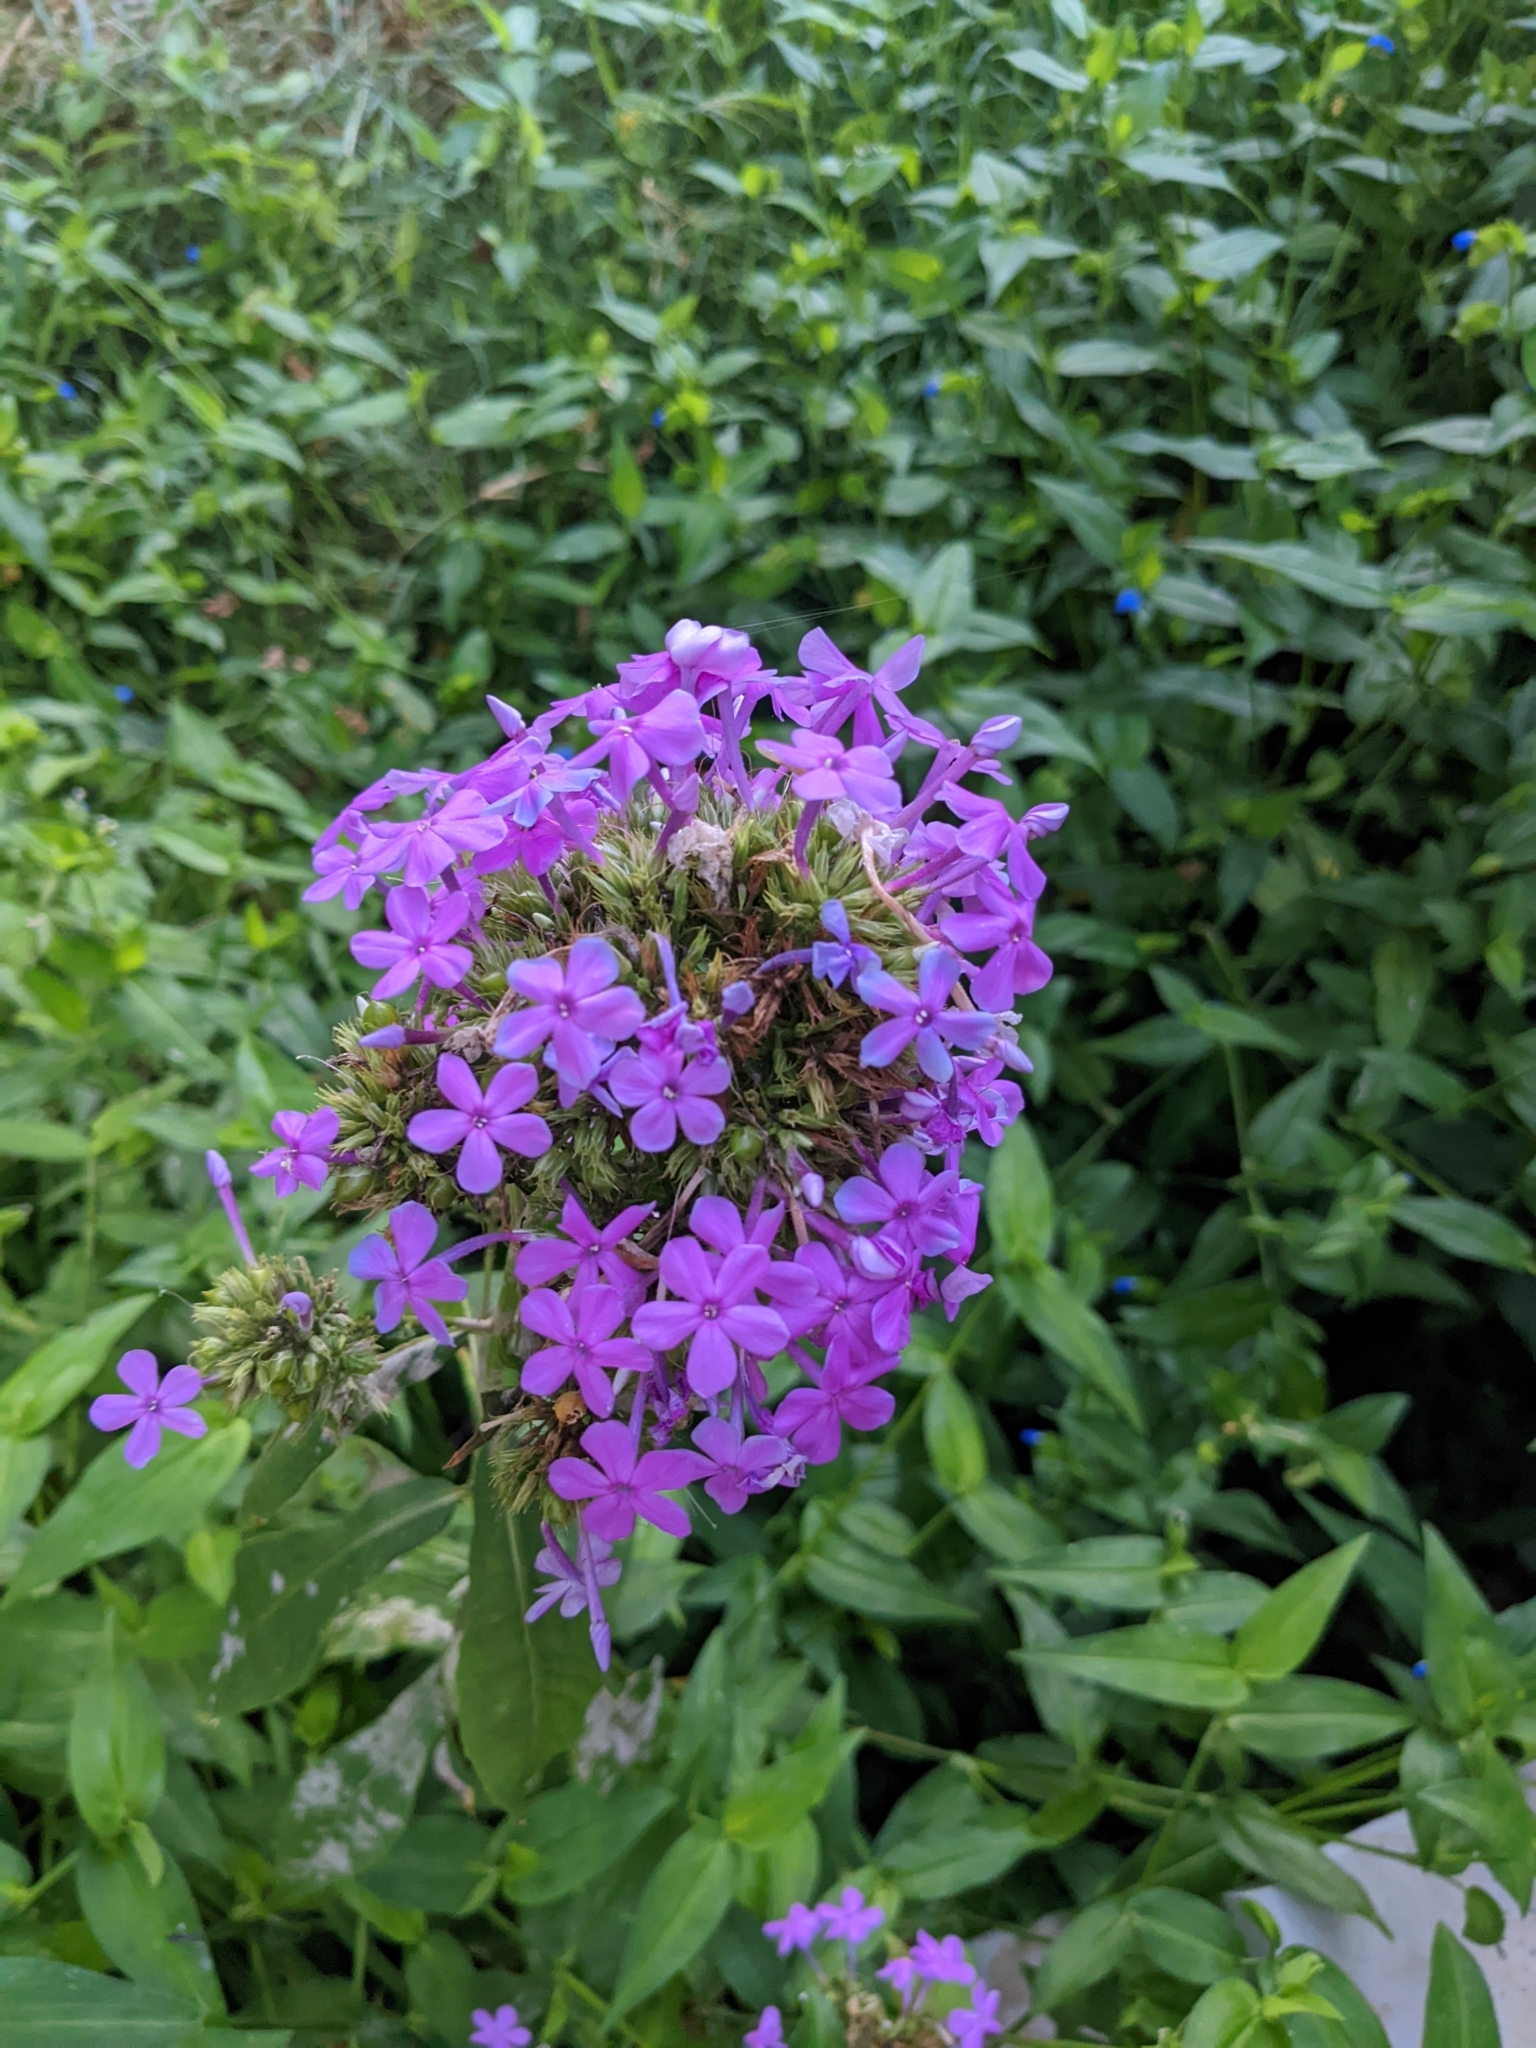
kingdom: Plantae
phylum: Tracheophyta
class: Magnoliopsida
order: Ericales
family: Polemoniaceae
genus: Phlox
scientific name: Phlox paniculata
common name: Fall phlox
